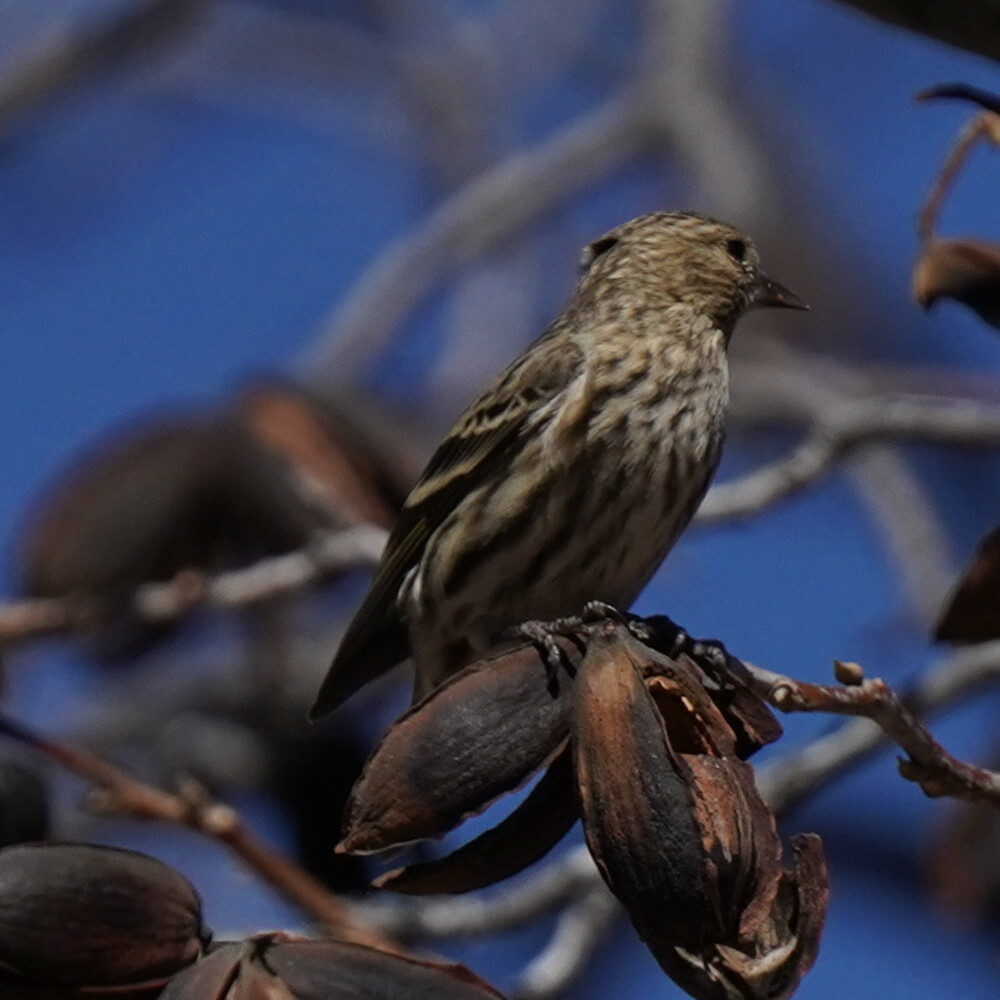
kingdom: Animalia
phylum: Chordata
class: Aves
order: Passeriformes
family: Fringillidae
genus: Spinus
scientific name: Spinus pinus
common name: Pine siskin
